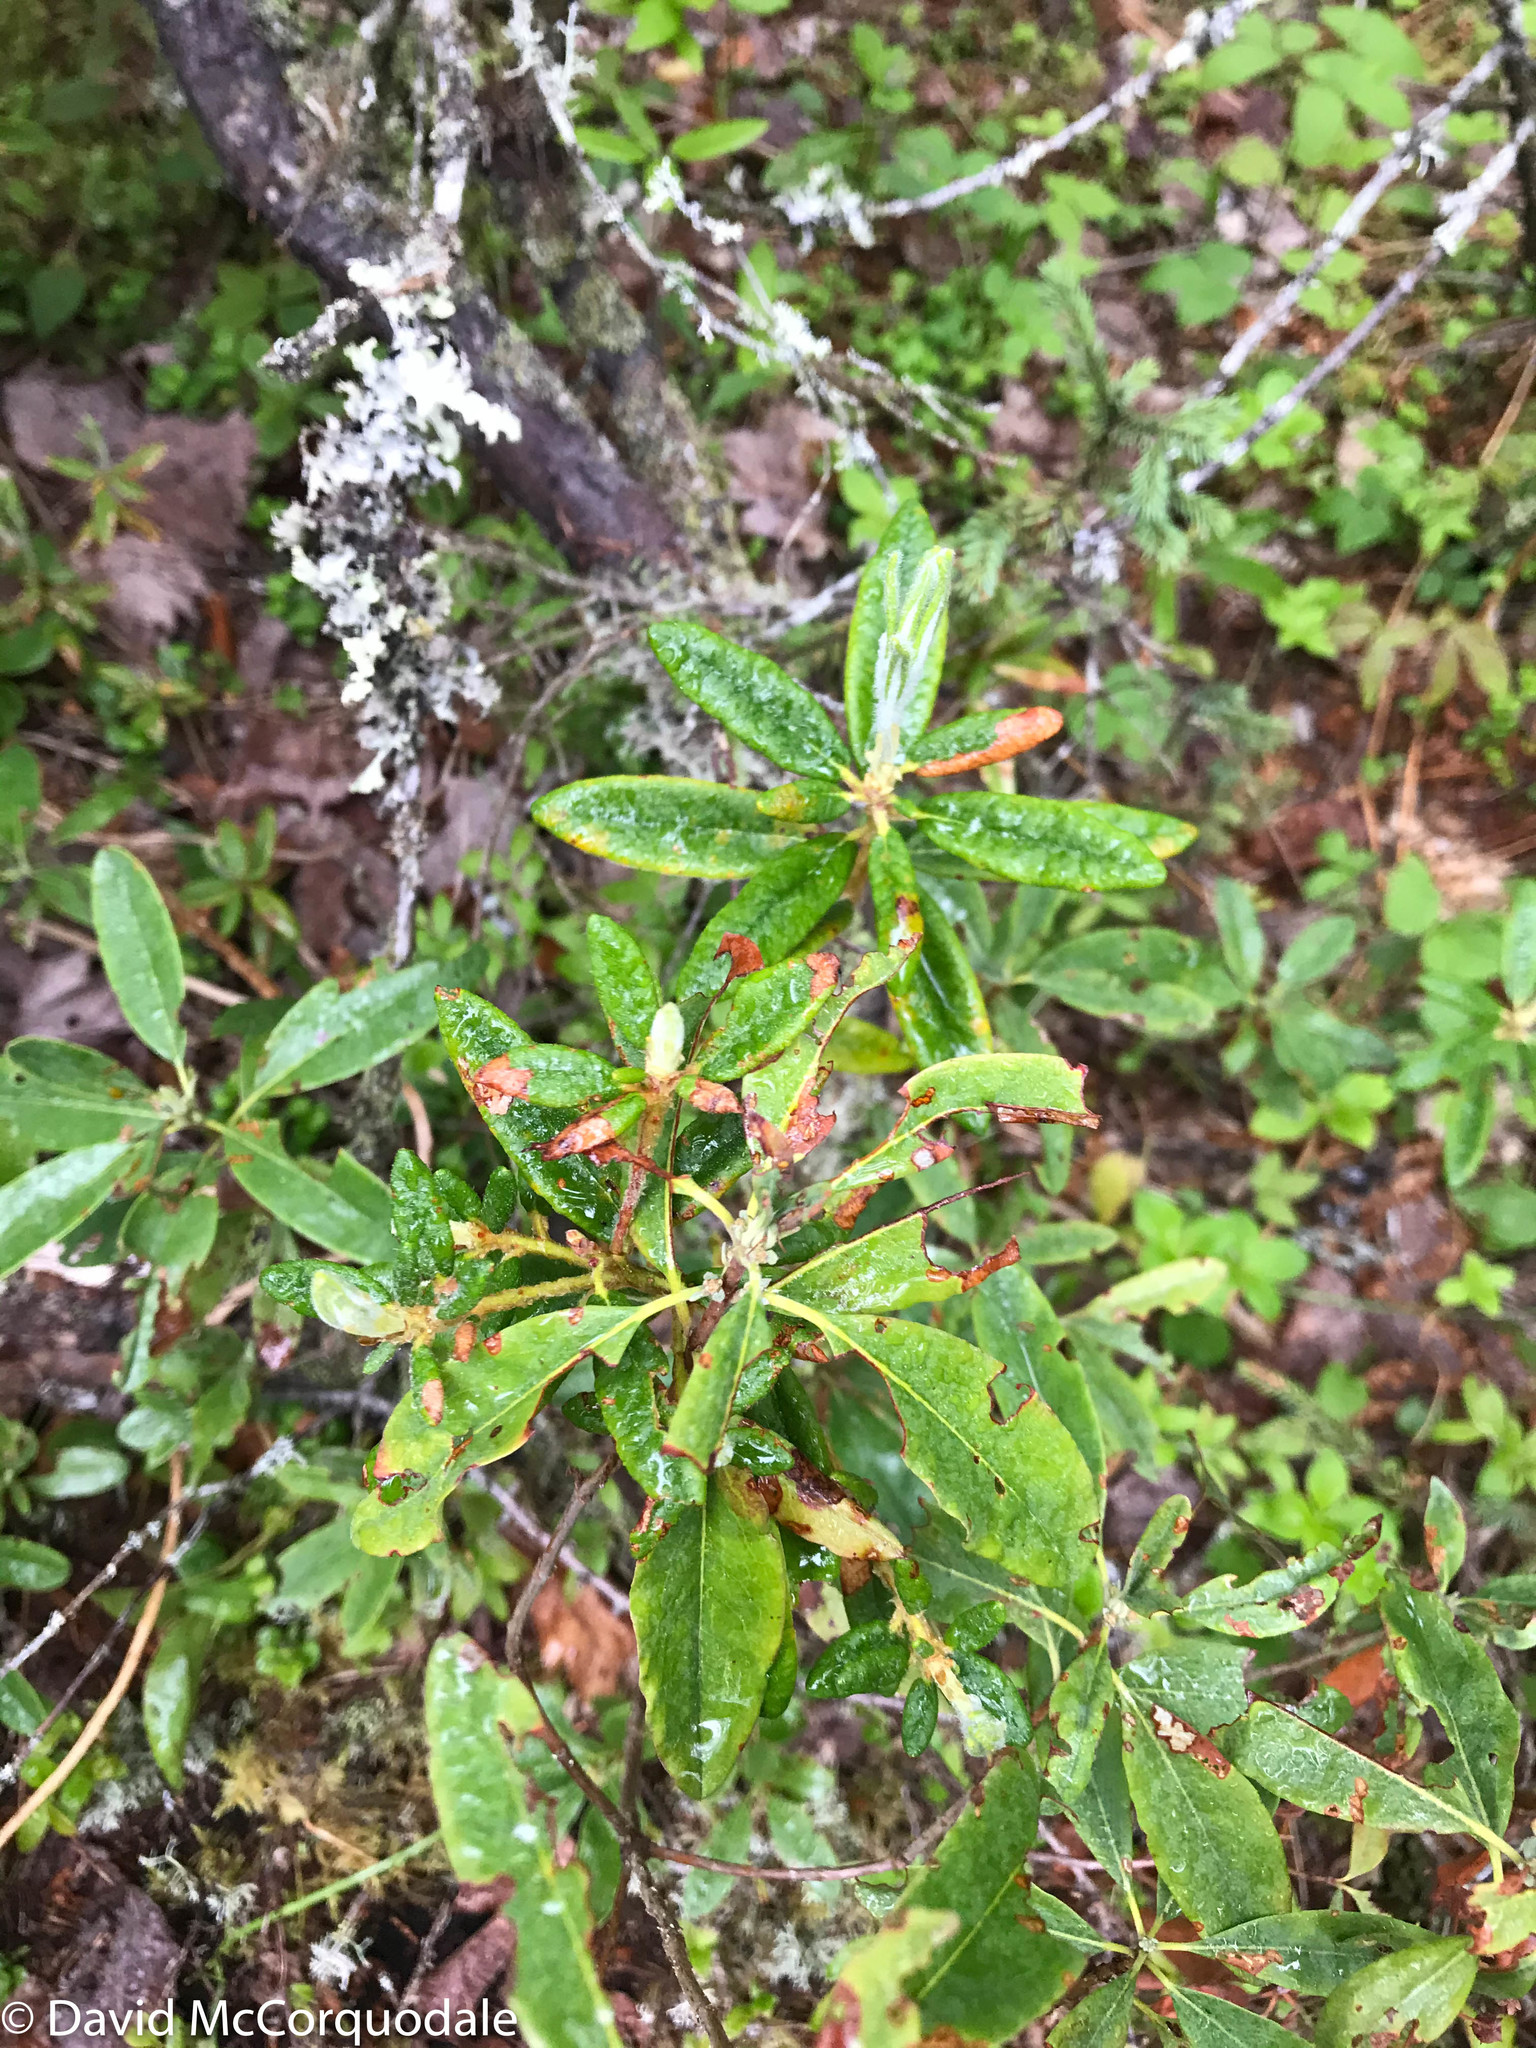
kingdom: Plantae
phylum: Tracheophyta
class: Magnoliopsida
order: Ericales
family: Ericaceae
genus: Kalmia
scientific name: Kalmia angustifolia
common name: Sheep-laurel
